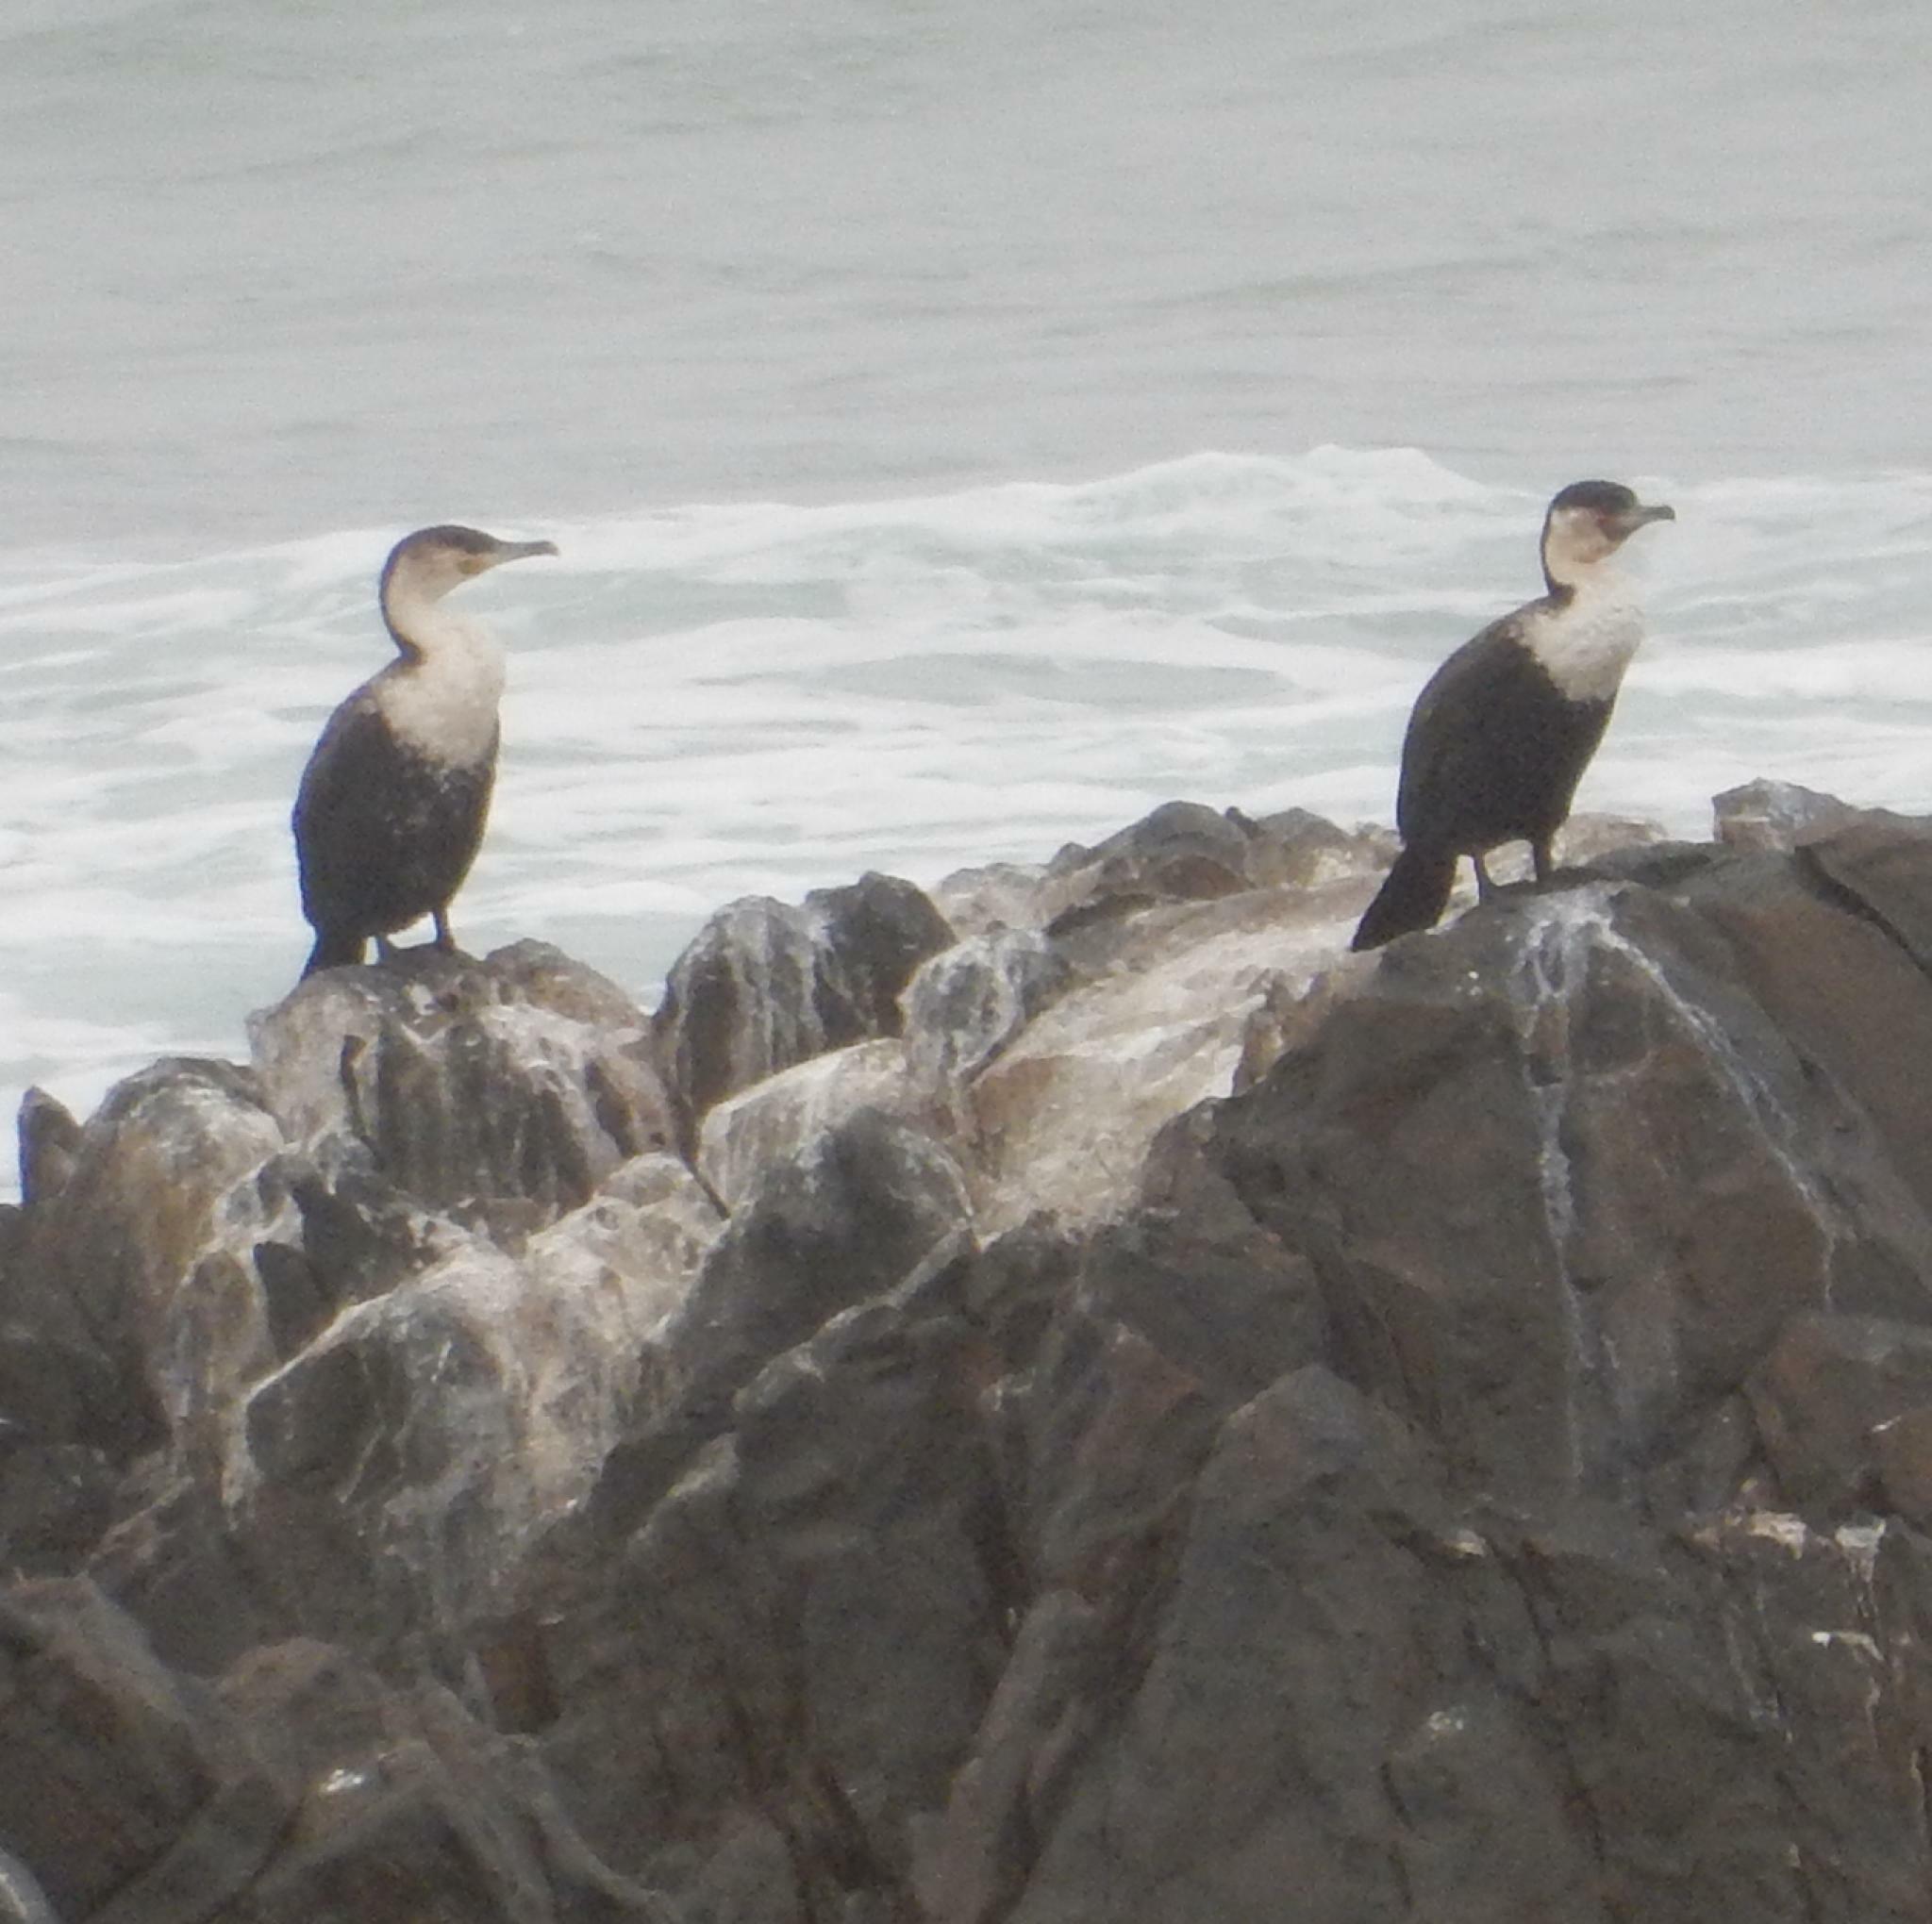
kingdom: Animalia
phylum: Chordata
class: Aves
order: Suliformes
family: Phalacrocoracidae
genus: Phalacrocorax
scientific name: Phalacrocorax carbo
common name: Great cormorant
